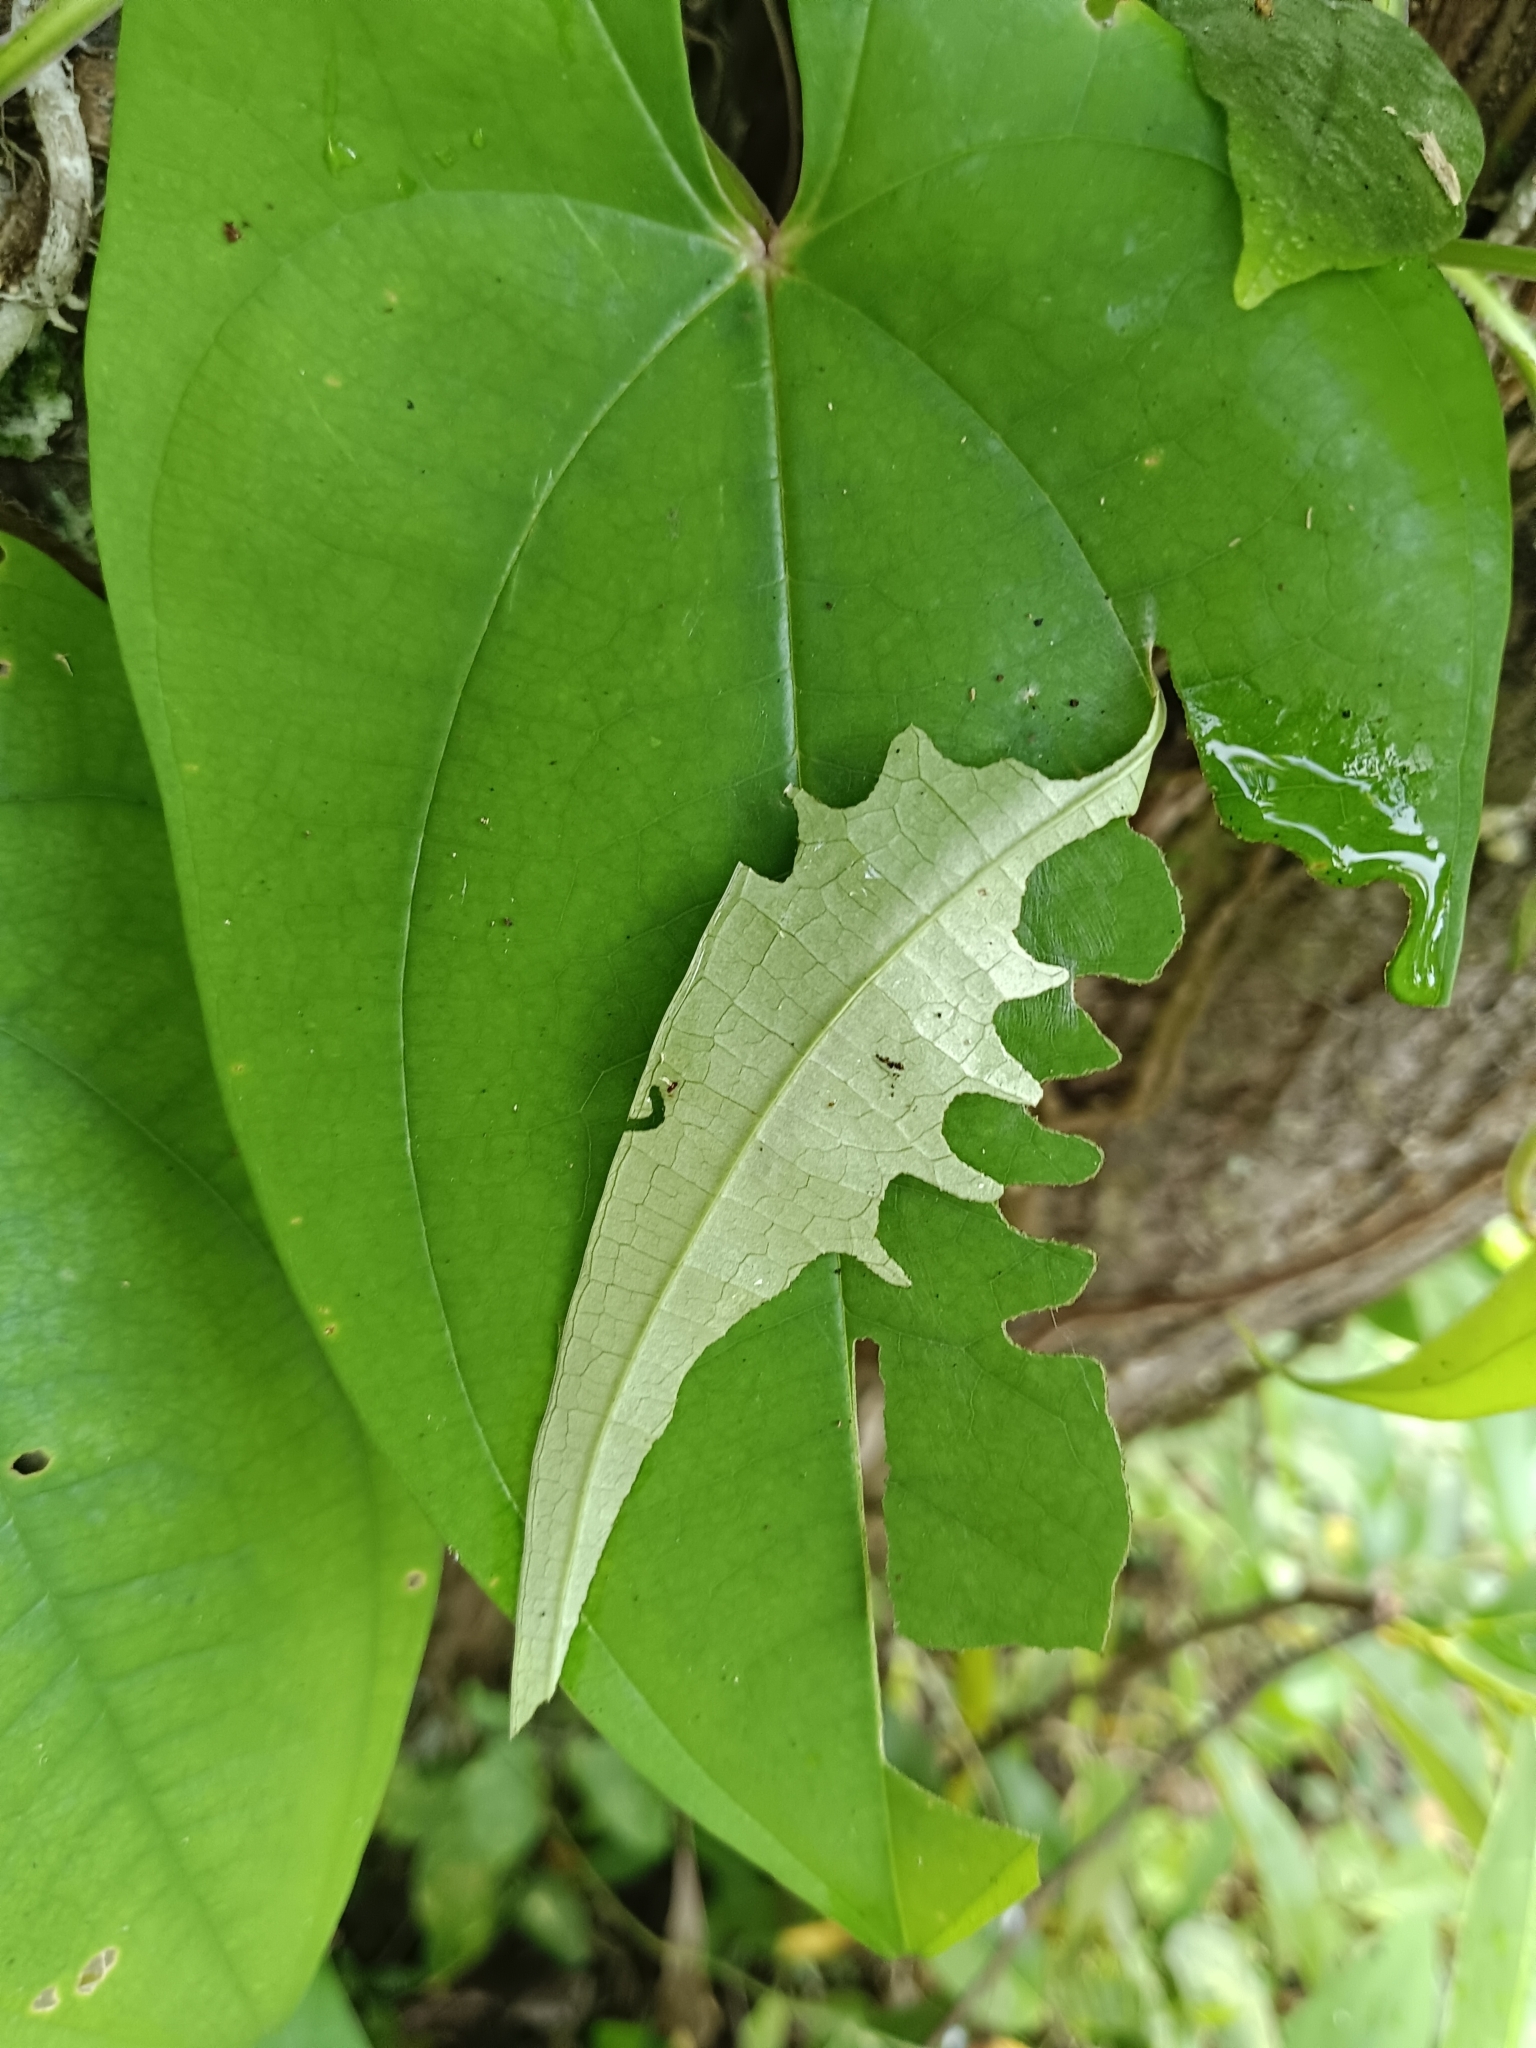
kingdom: Animalia
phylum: Arthropoda
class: Insecta
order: Lepidoptera
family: Hesperiidae
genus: Tagiades
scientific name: Tagiades litigiosa
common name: Water snow flat
